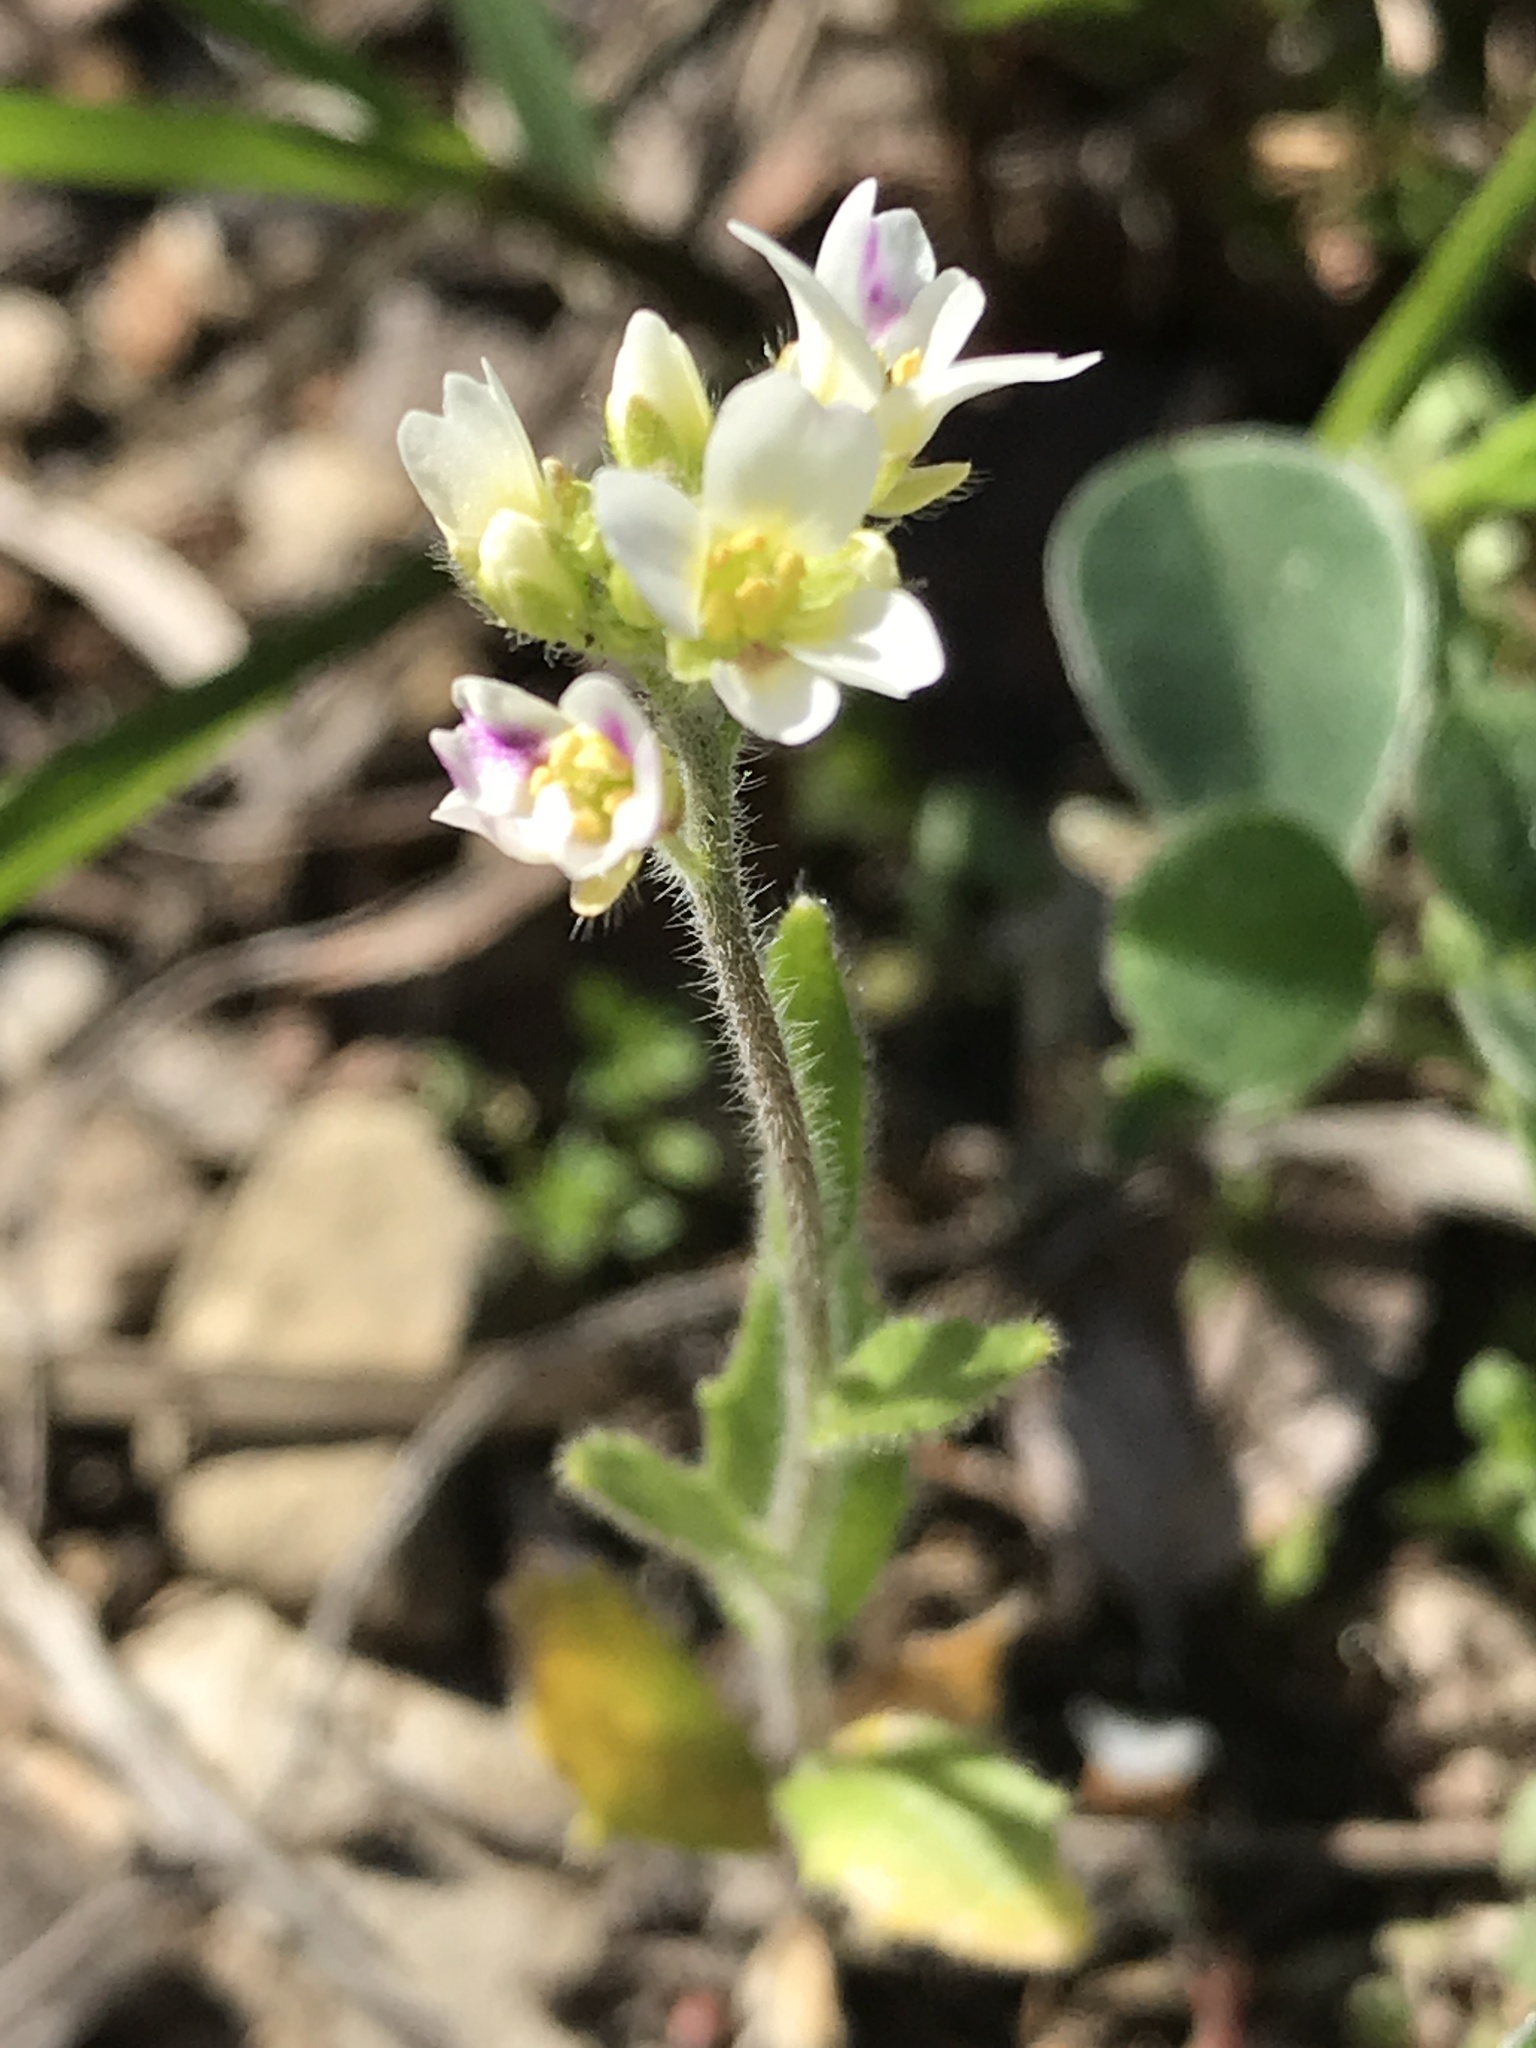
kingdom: Plantae
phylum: Tracheophyta
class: Magnoliopsida
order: Brassicales
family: Brassicaceae
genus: Tomostima
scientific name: Tomostima platycarpa
